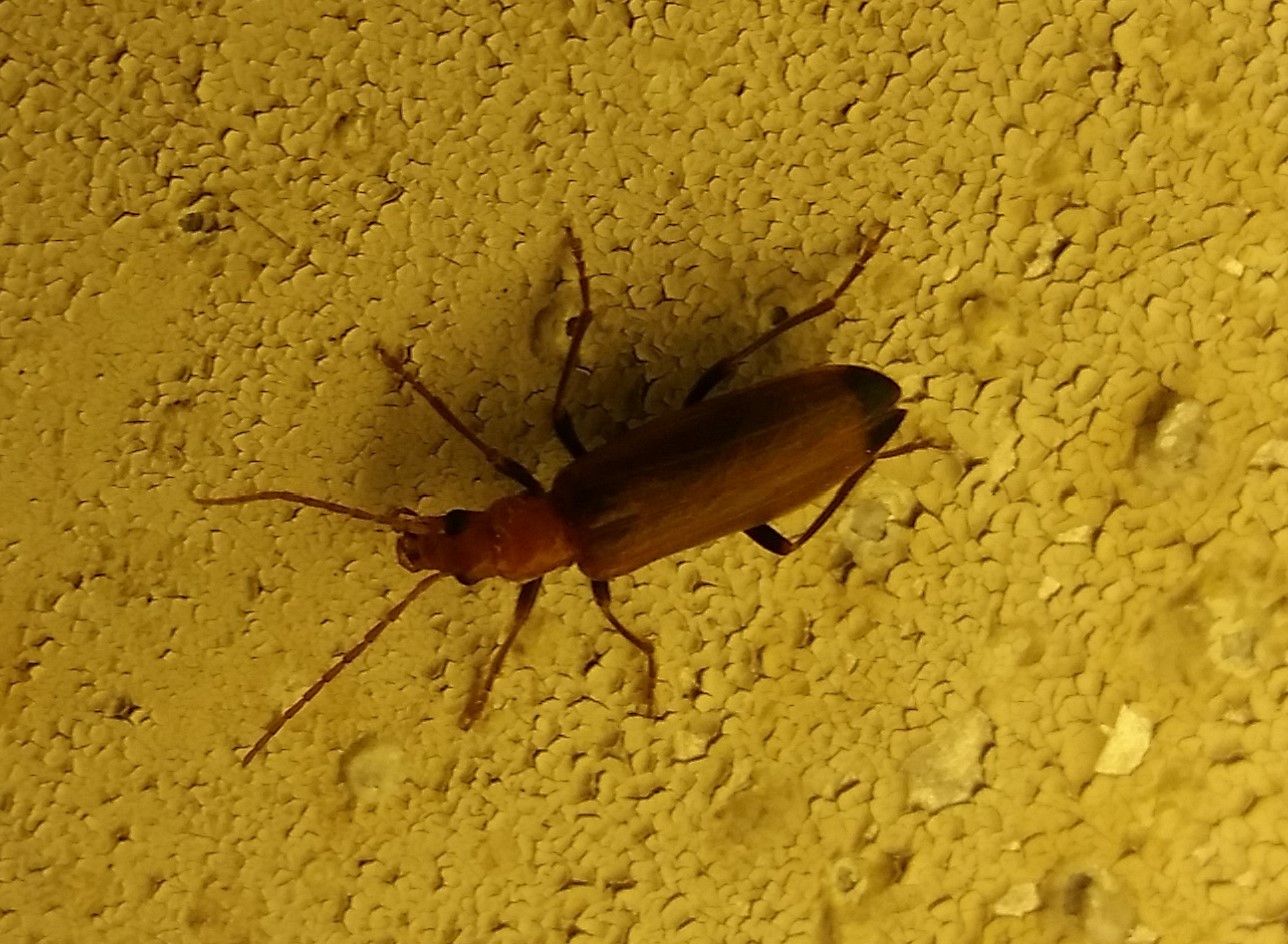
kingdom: Animalia
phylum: Arthropoda
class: Insecta
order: Coleoptera
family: Oedemeridae
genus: Nacerdes
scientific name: Nacerdes melanura
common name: Wharf borer
